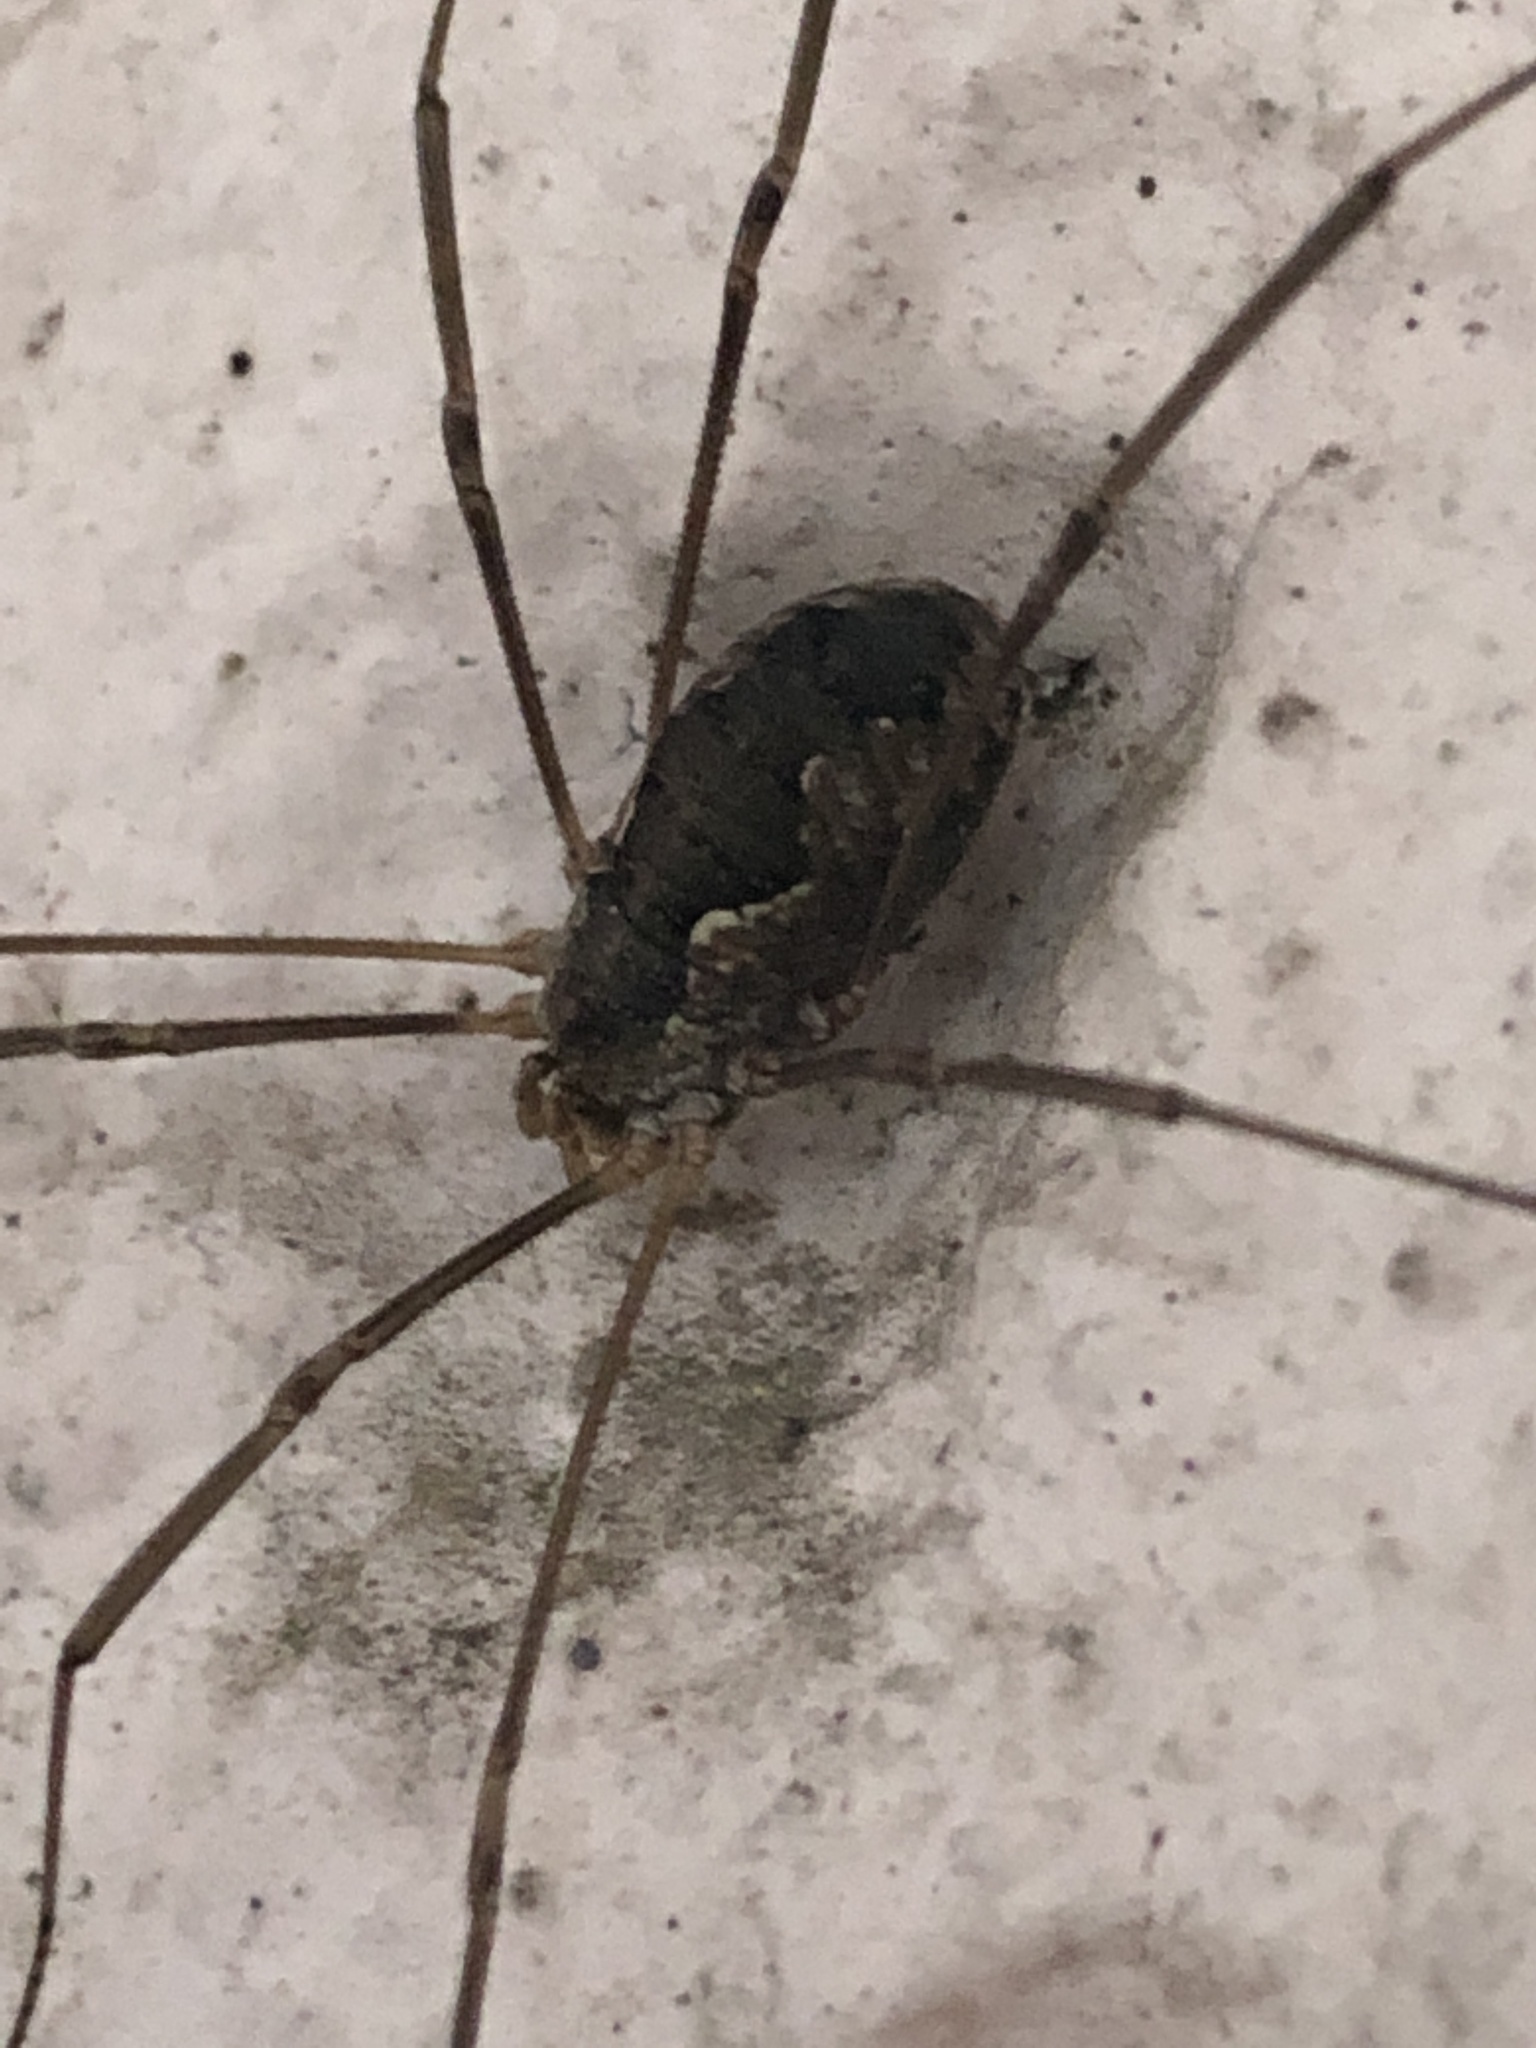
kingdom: Animalia
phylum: Arthropoda
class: Arachnida
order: Opiliones
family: Phalangiidae
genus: Phalangium
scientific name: Phalangium opilio
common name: Daddy longleg
